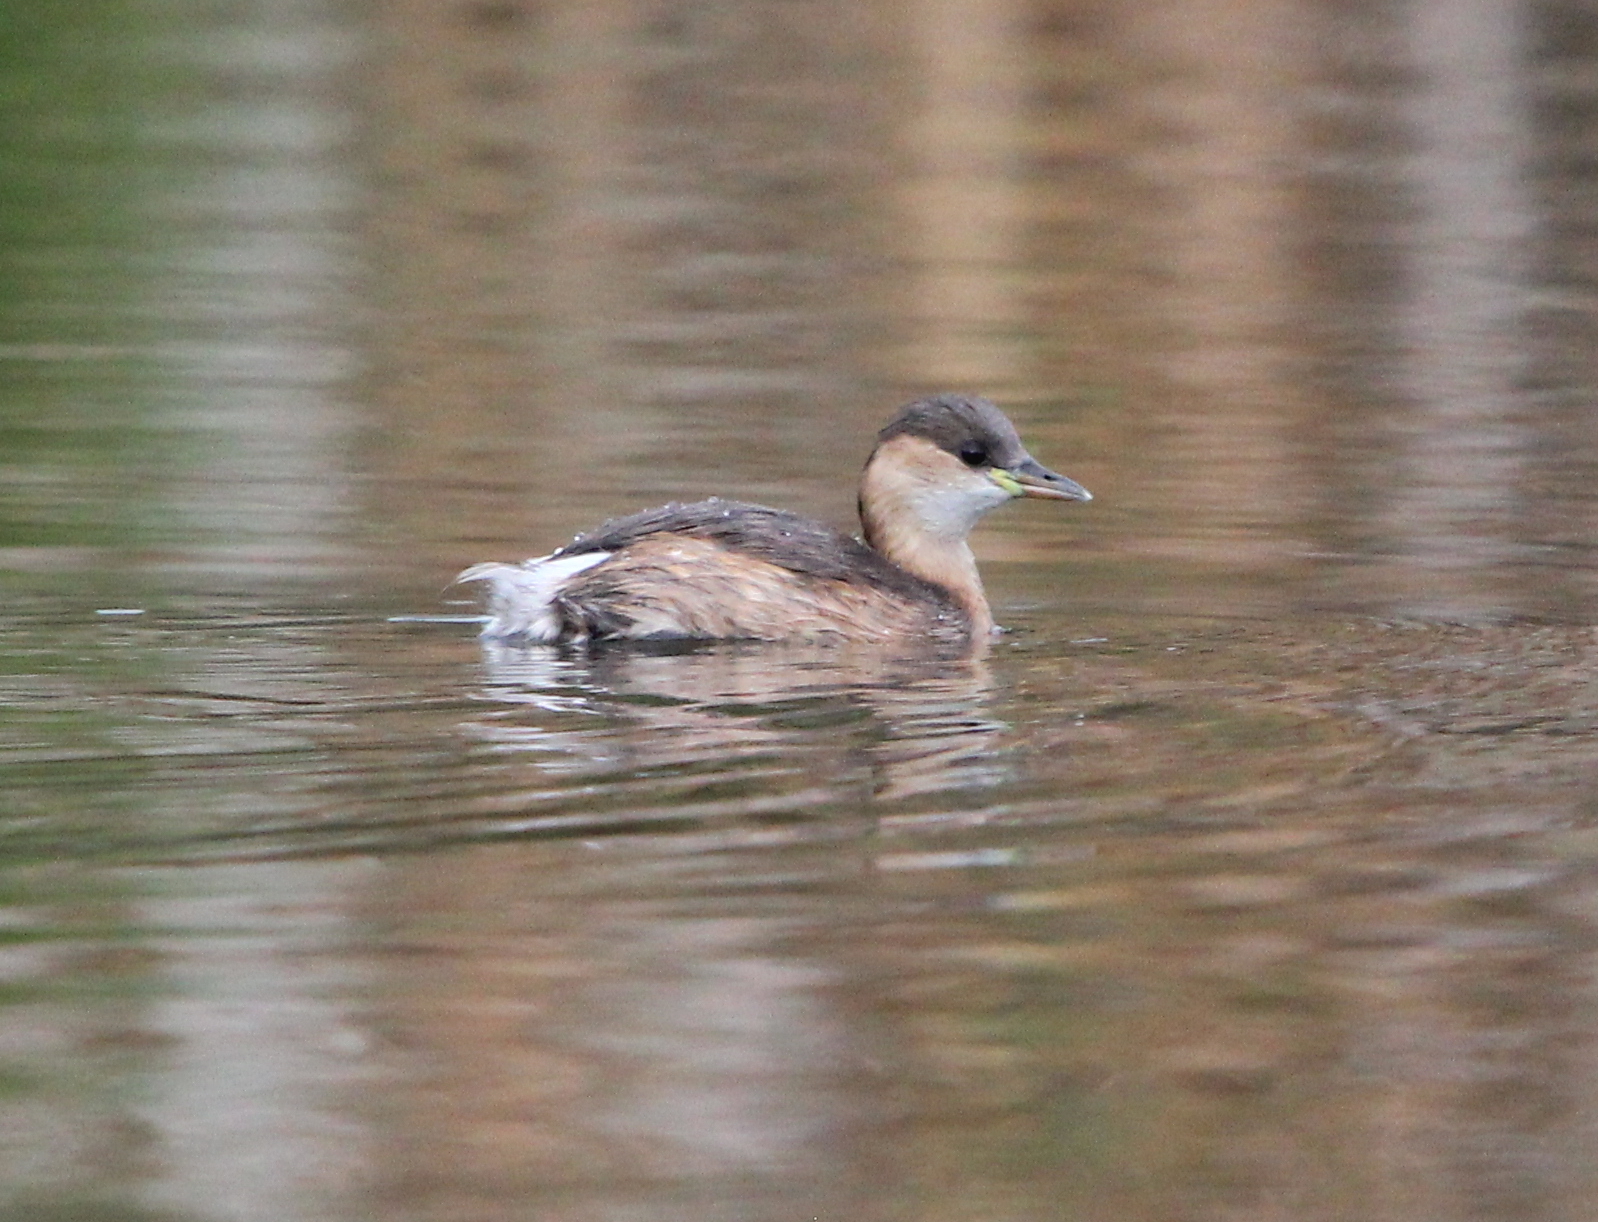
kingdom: Animalia
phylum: Chordata
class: Aves
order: Podicipediformes
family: Podicipedidae
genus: Tachybaptus
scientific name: Tachybaptus ruficollis
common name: Little grebe
